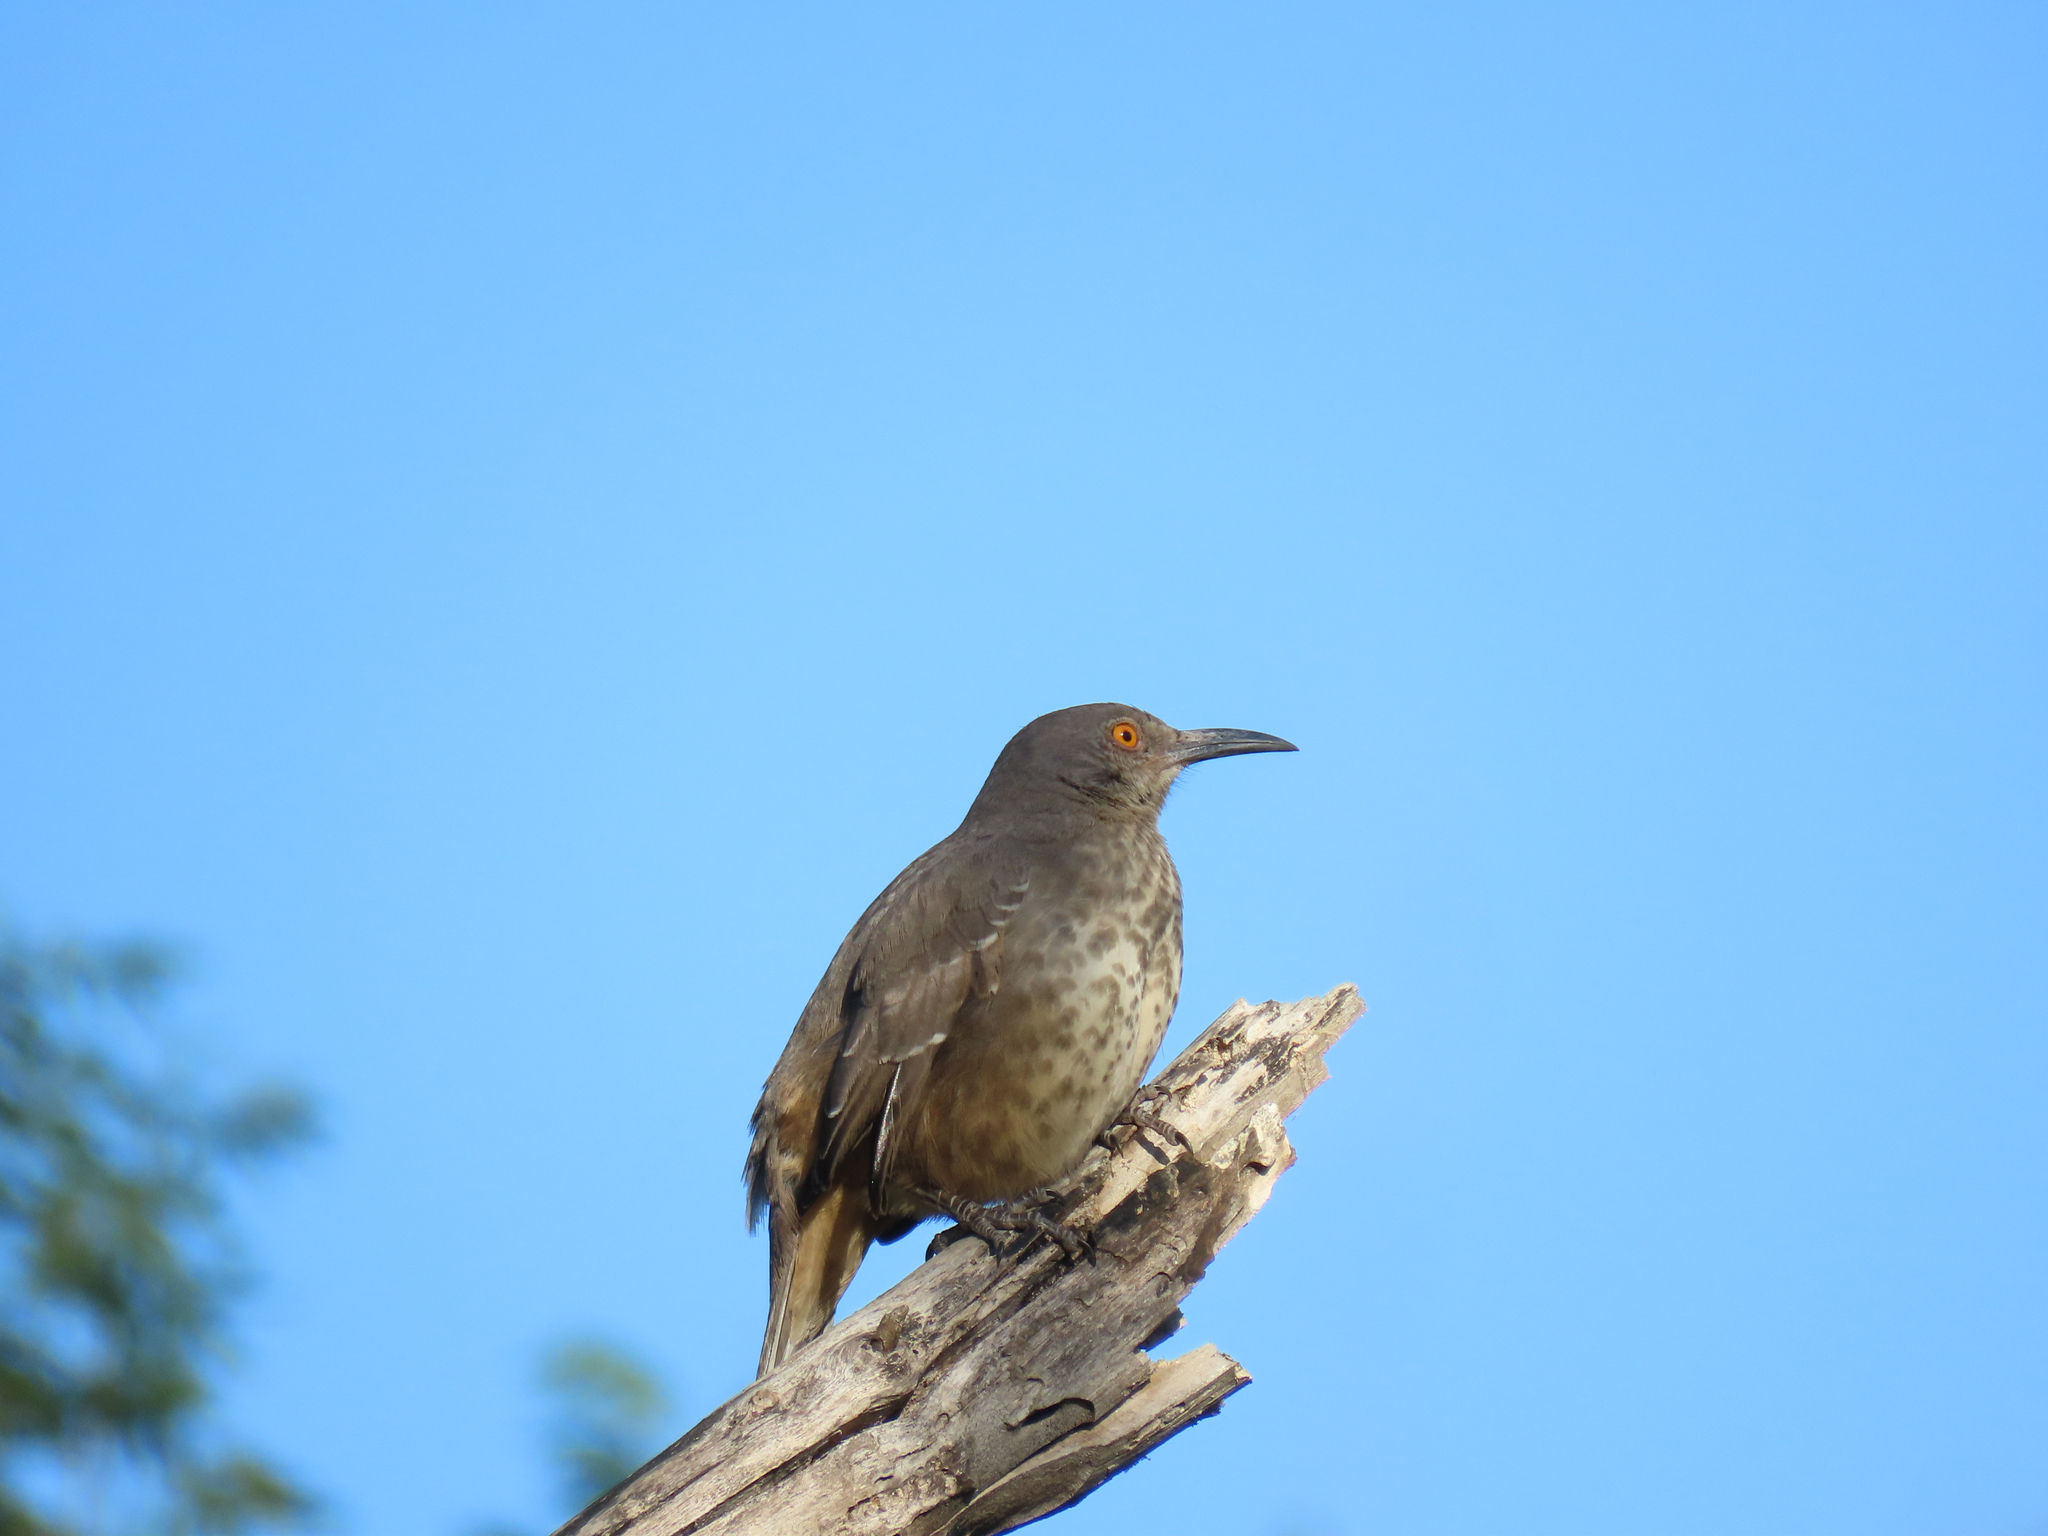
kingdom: Animalia
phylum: Chordata
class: Aves
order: Passeriformes
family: Mimidae
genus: Toxostoma
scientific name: Toxostoma curvirostre
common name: Curve-billed thrasher
